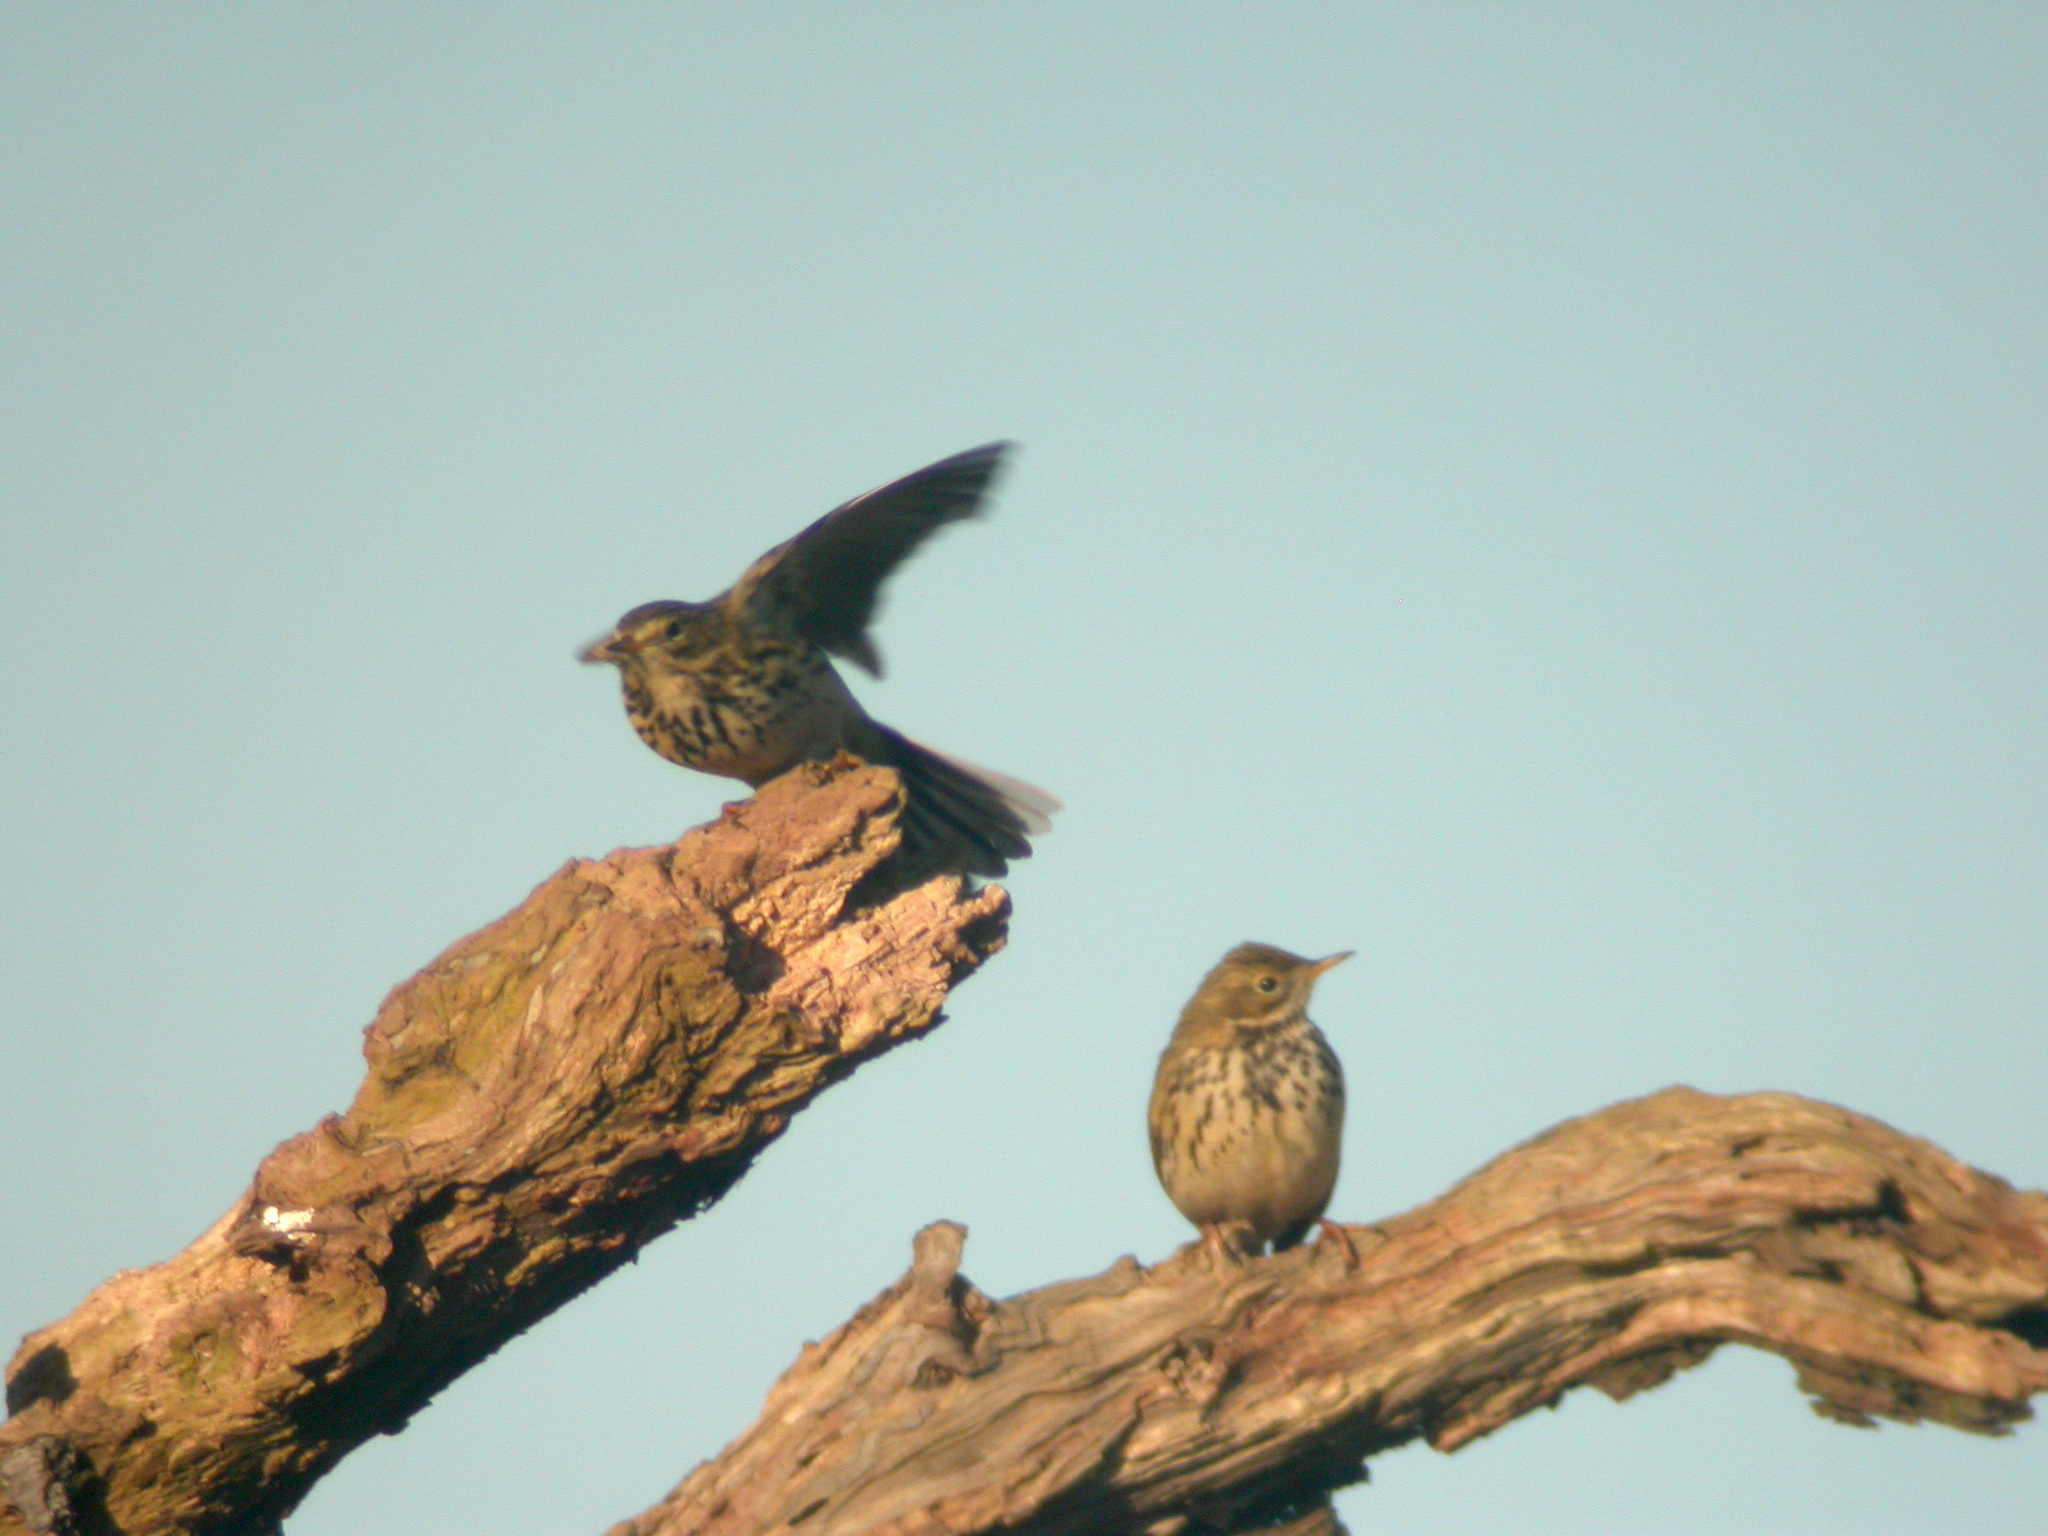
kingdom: Animalia
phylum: Chordata
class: Aves
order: Passeriformes
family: Motacillidae
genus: Anthus
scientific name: Anthus pratensis
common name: Meadow pipit
